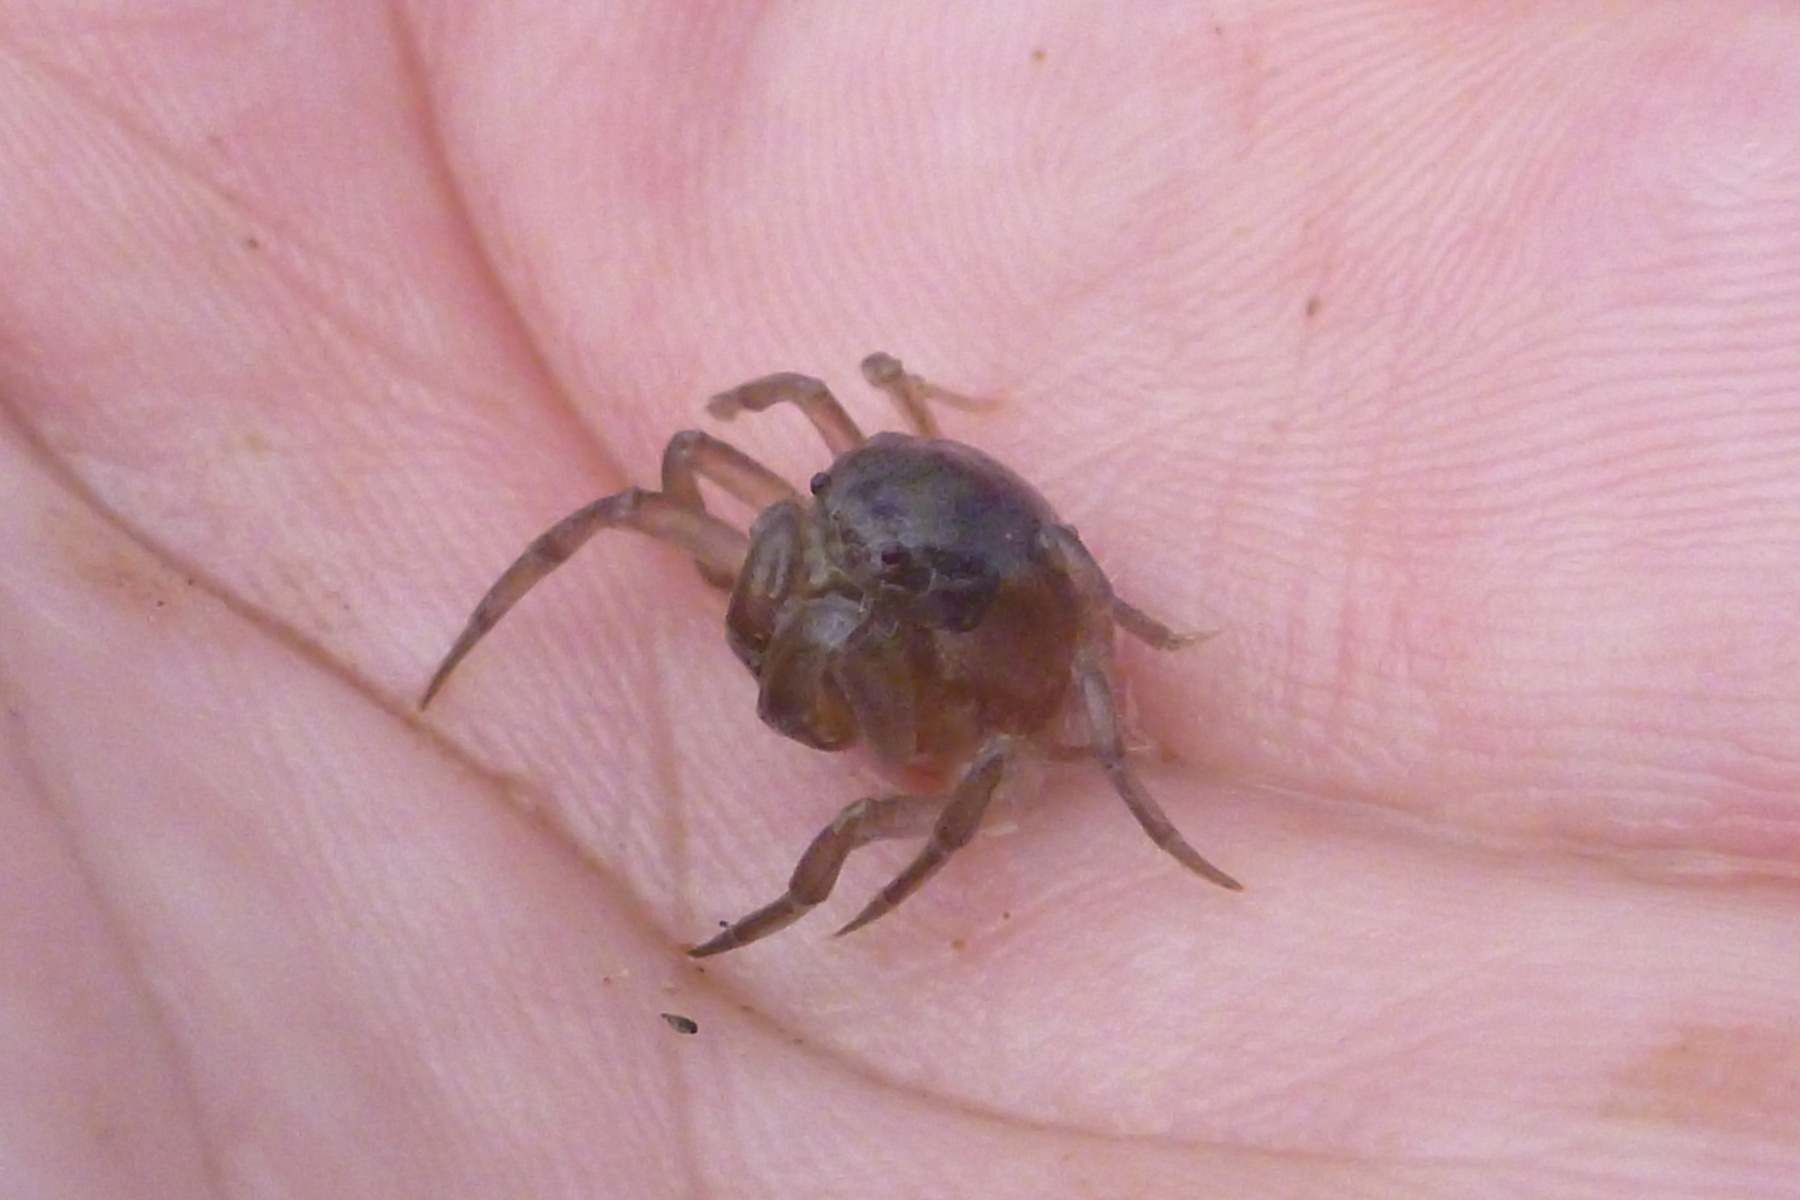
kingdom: Animalia
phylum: Arthropoda
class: Malacostraca
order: Decapoda
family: Mictyridae
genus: Mictyris
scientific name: Mictyris livingstonei
